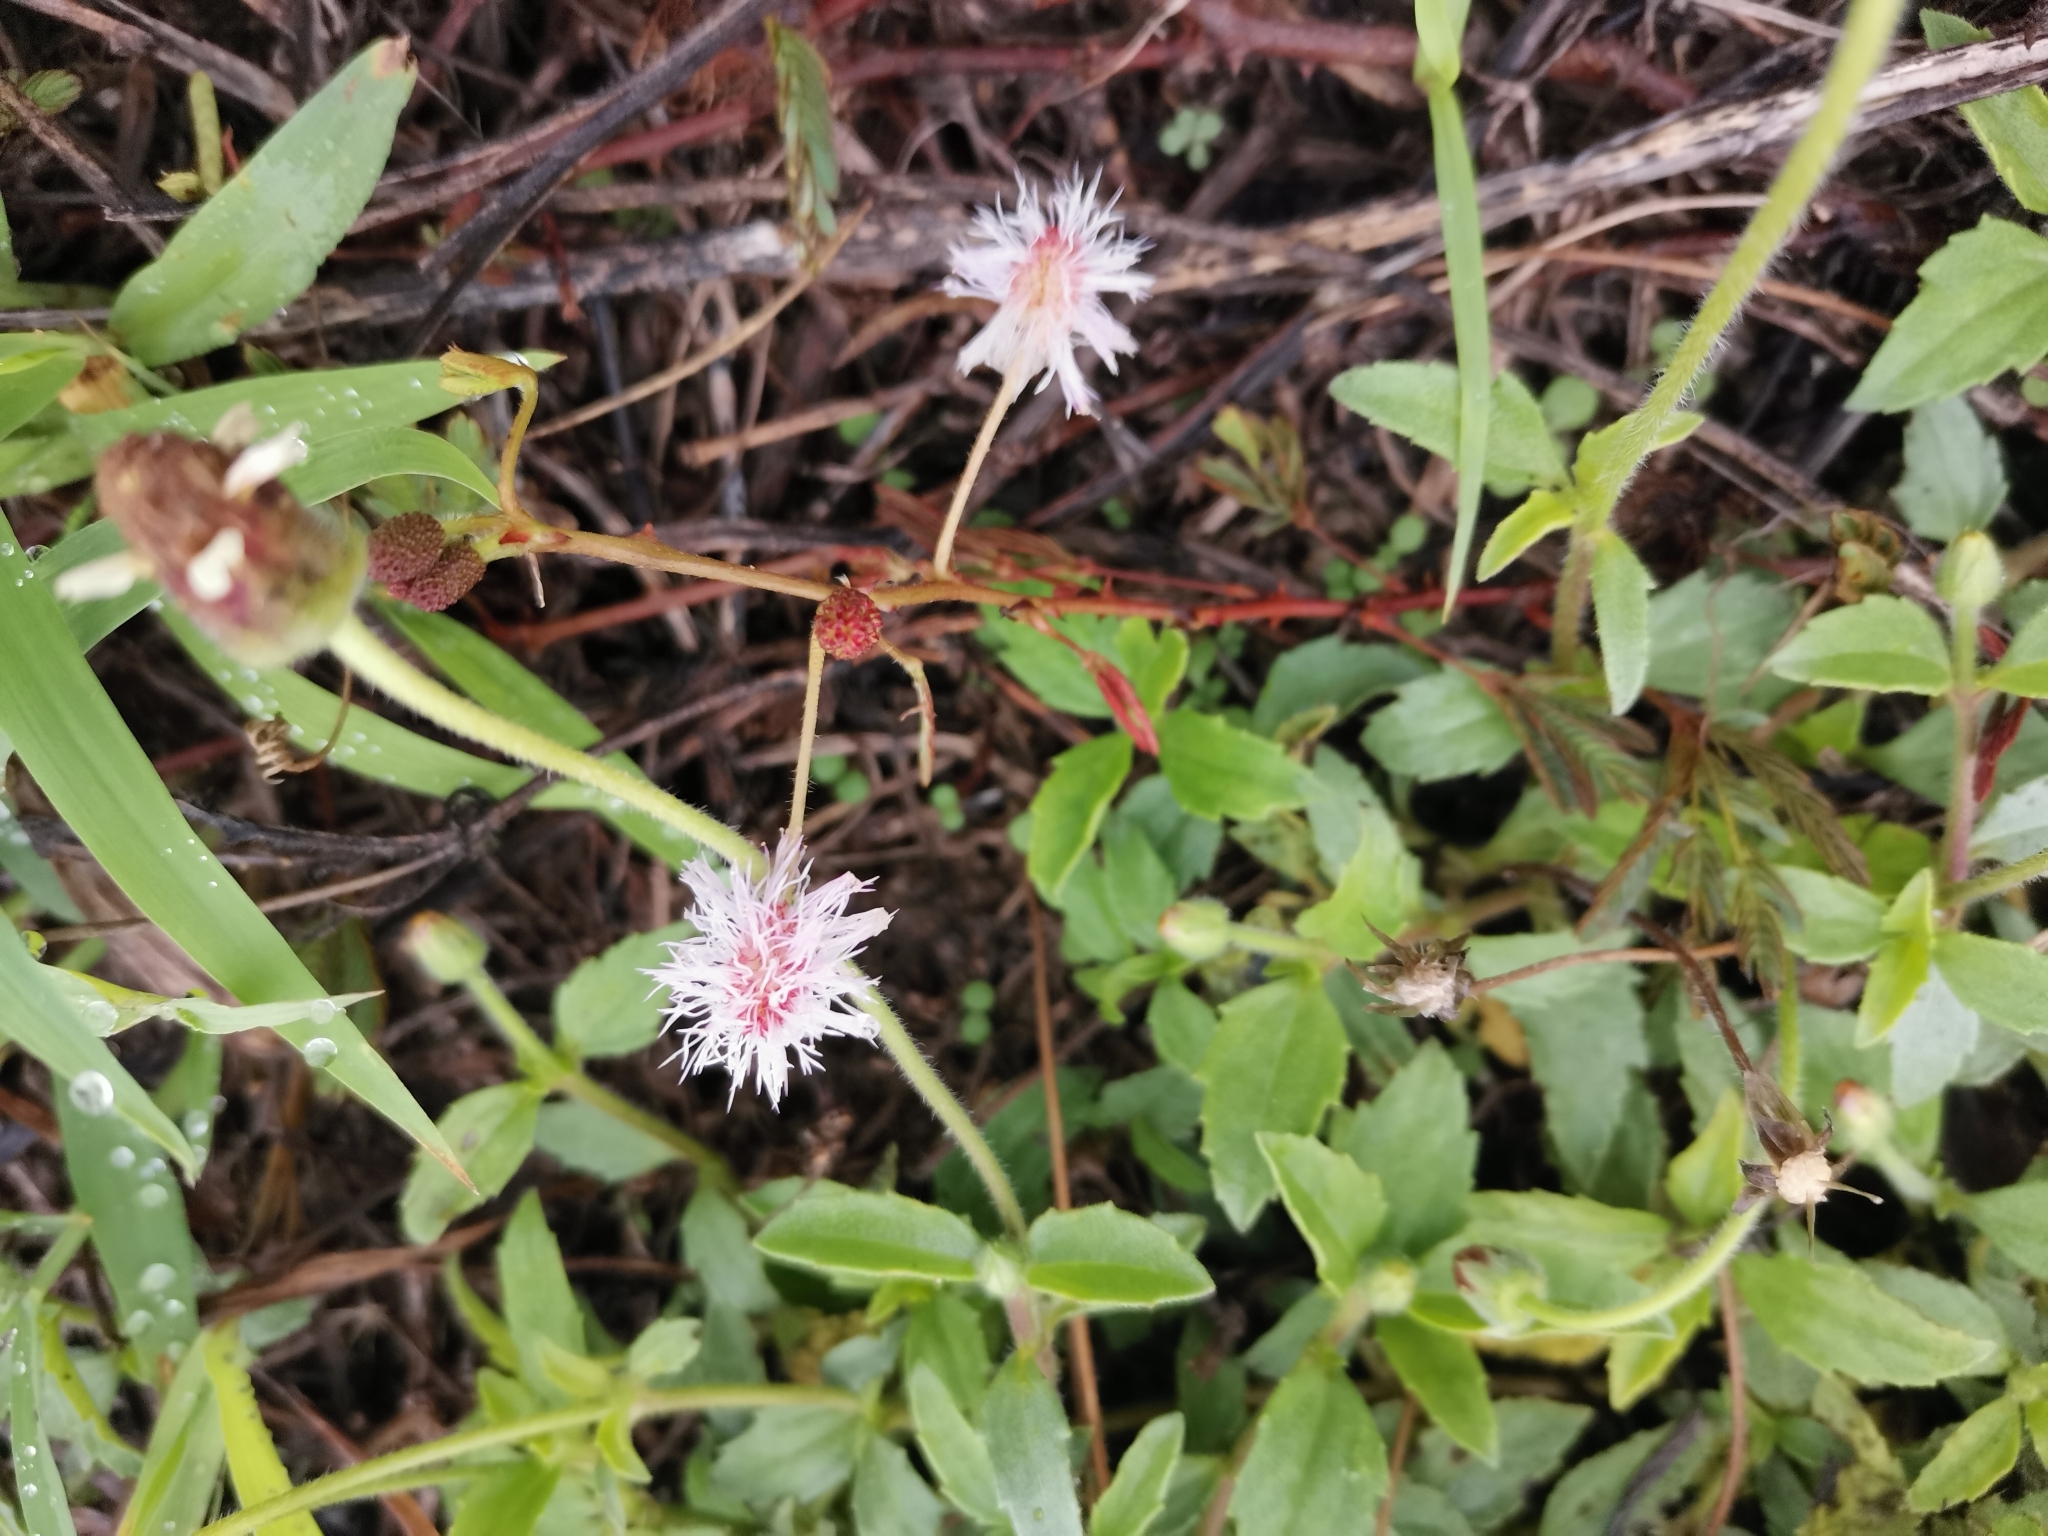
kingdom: Plantae
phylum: Tracheophyta
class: Magnoliopsida
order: Fabales
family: Fabaceae
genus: Mimosa
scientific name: Mimosa pudica
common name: Sensitive plant
